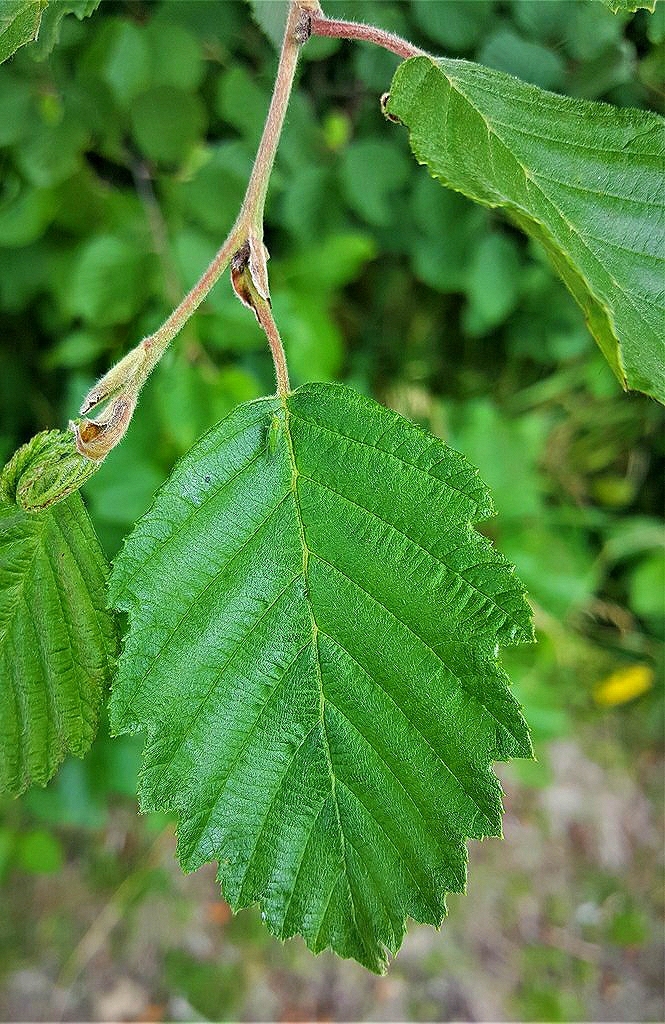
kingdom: Plantae
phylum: Tracheophyta
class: Magnoliopsida
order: Fagales
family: Betulaceae
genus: Alnus
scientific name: Alnus incana
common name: Grey alder
